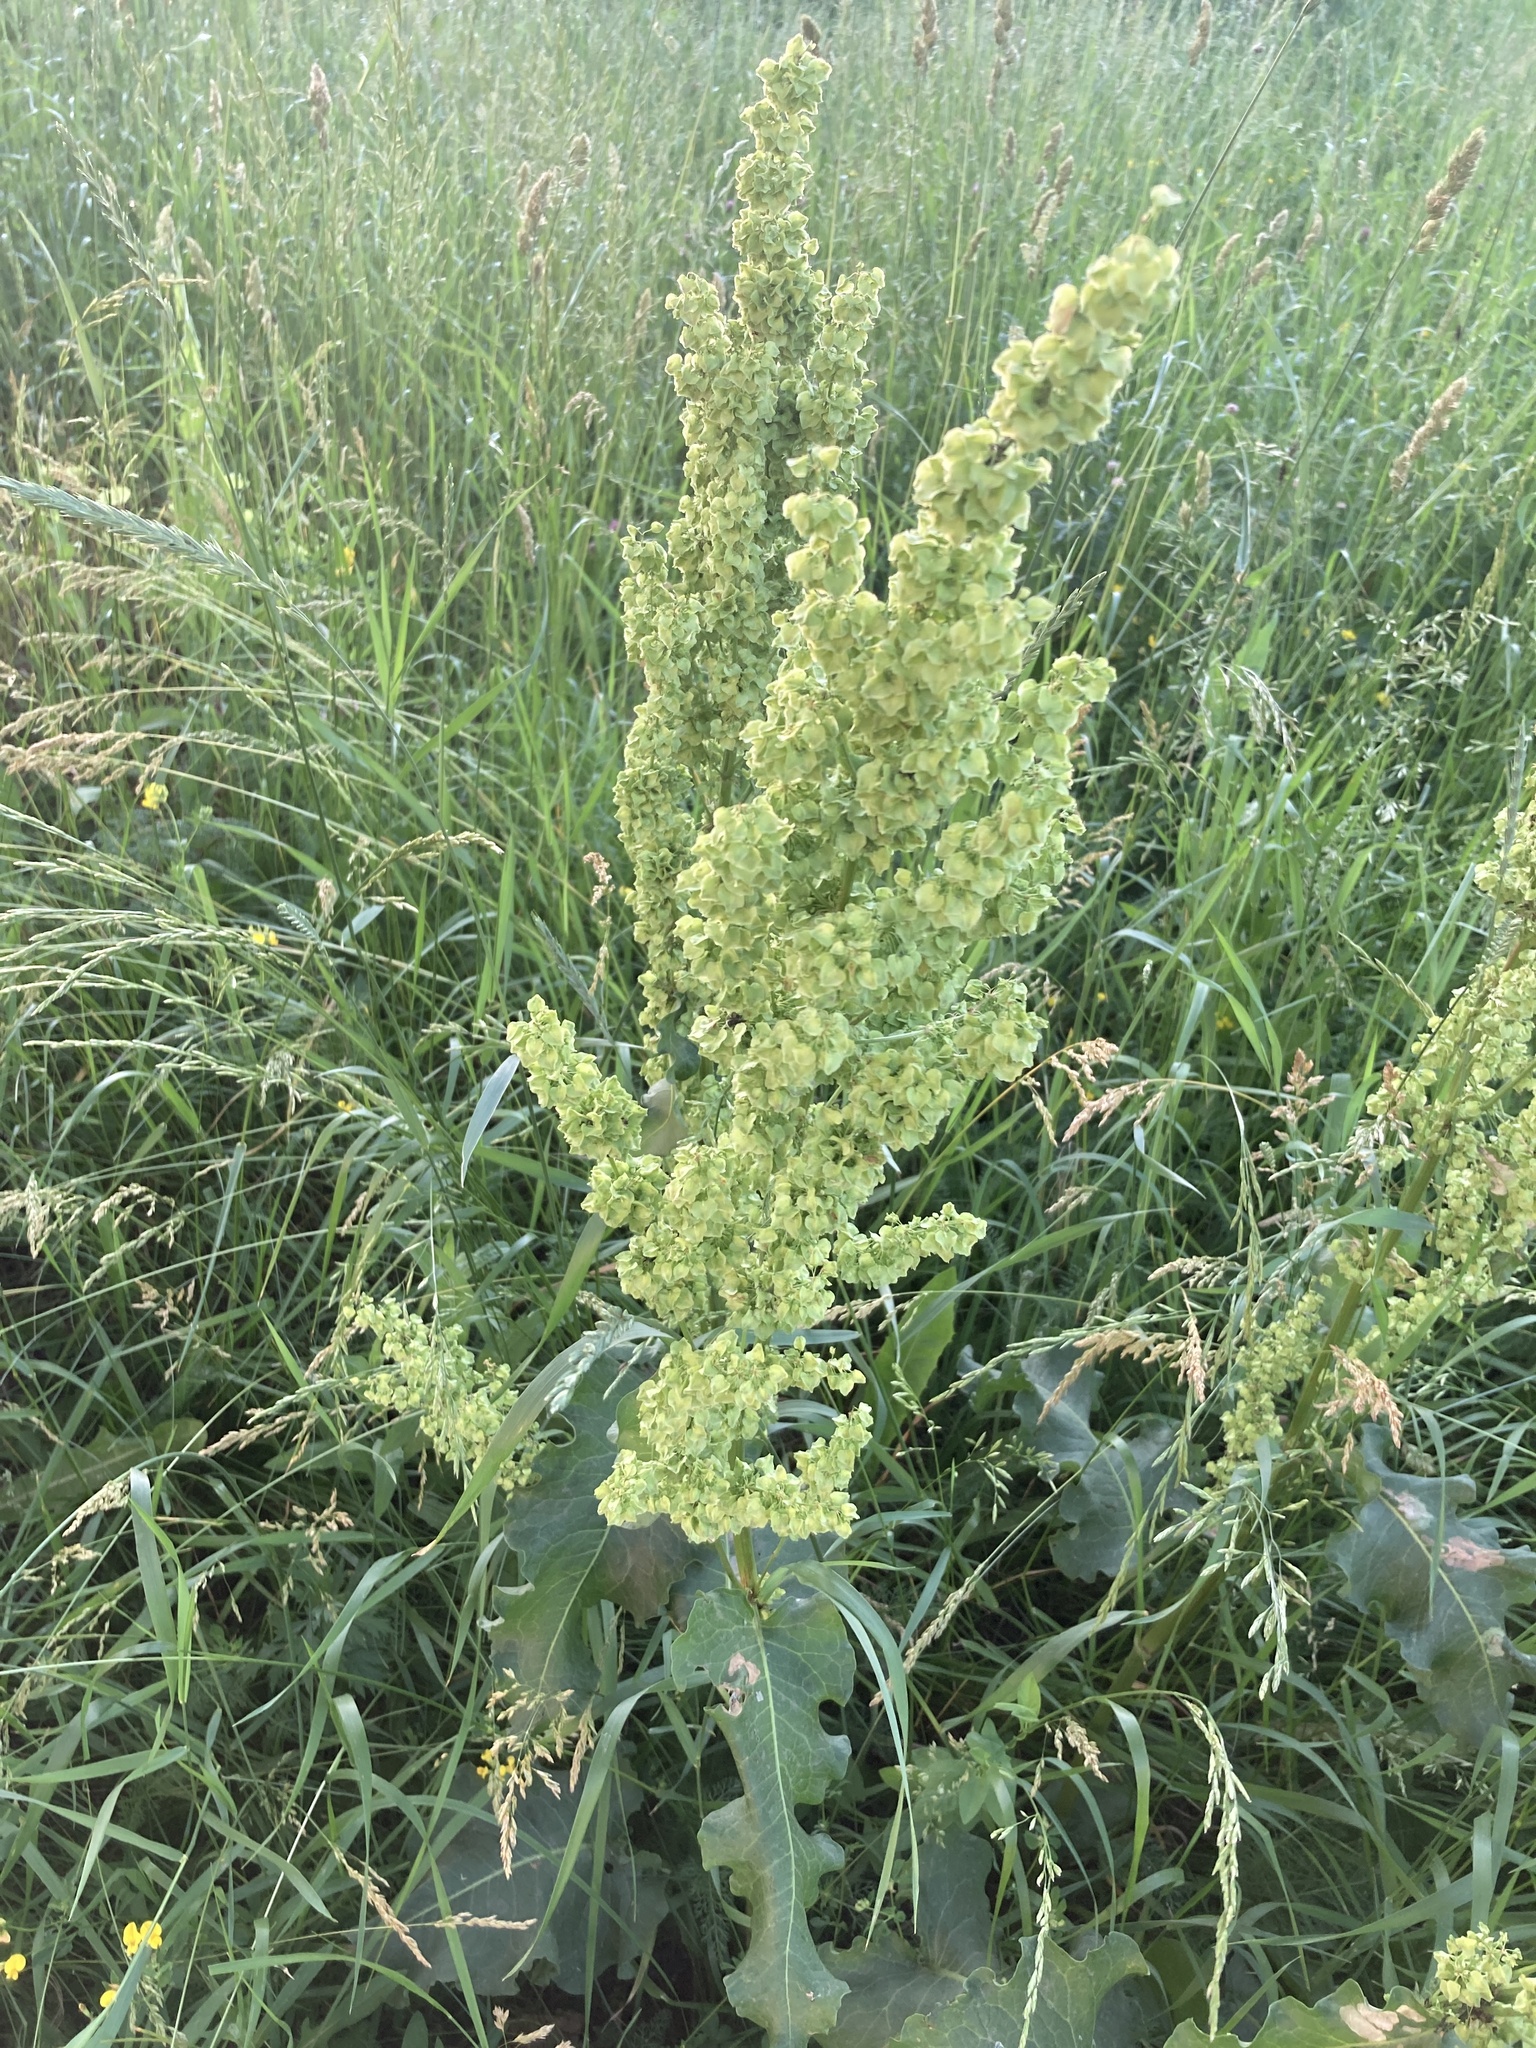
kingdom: Plantae
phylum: Tracheophyta
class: Magnoliopsida
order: Caryophyllales
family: Polygonaceae
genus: Rumex
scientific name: Rumex confertus
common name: Russian dock
